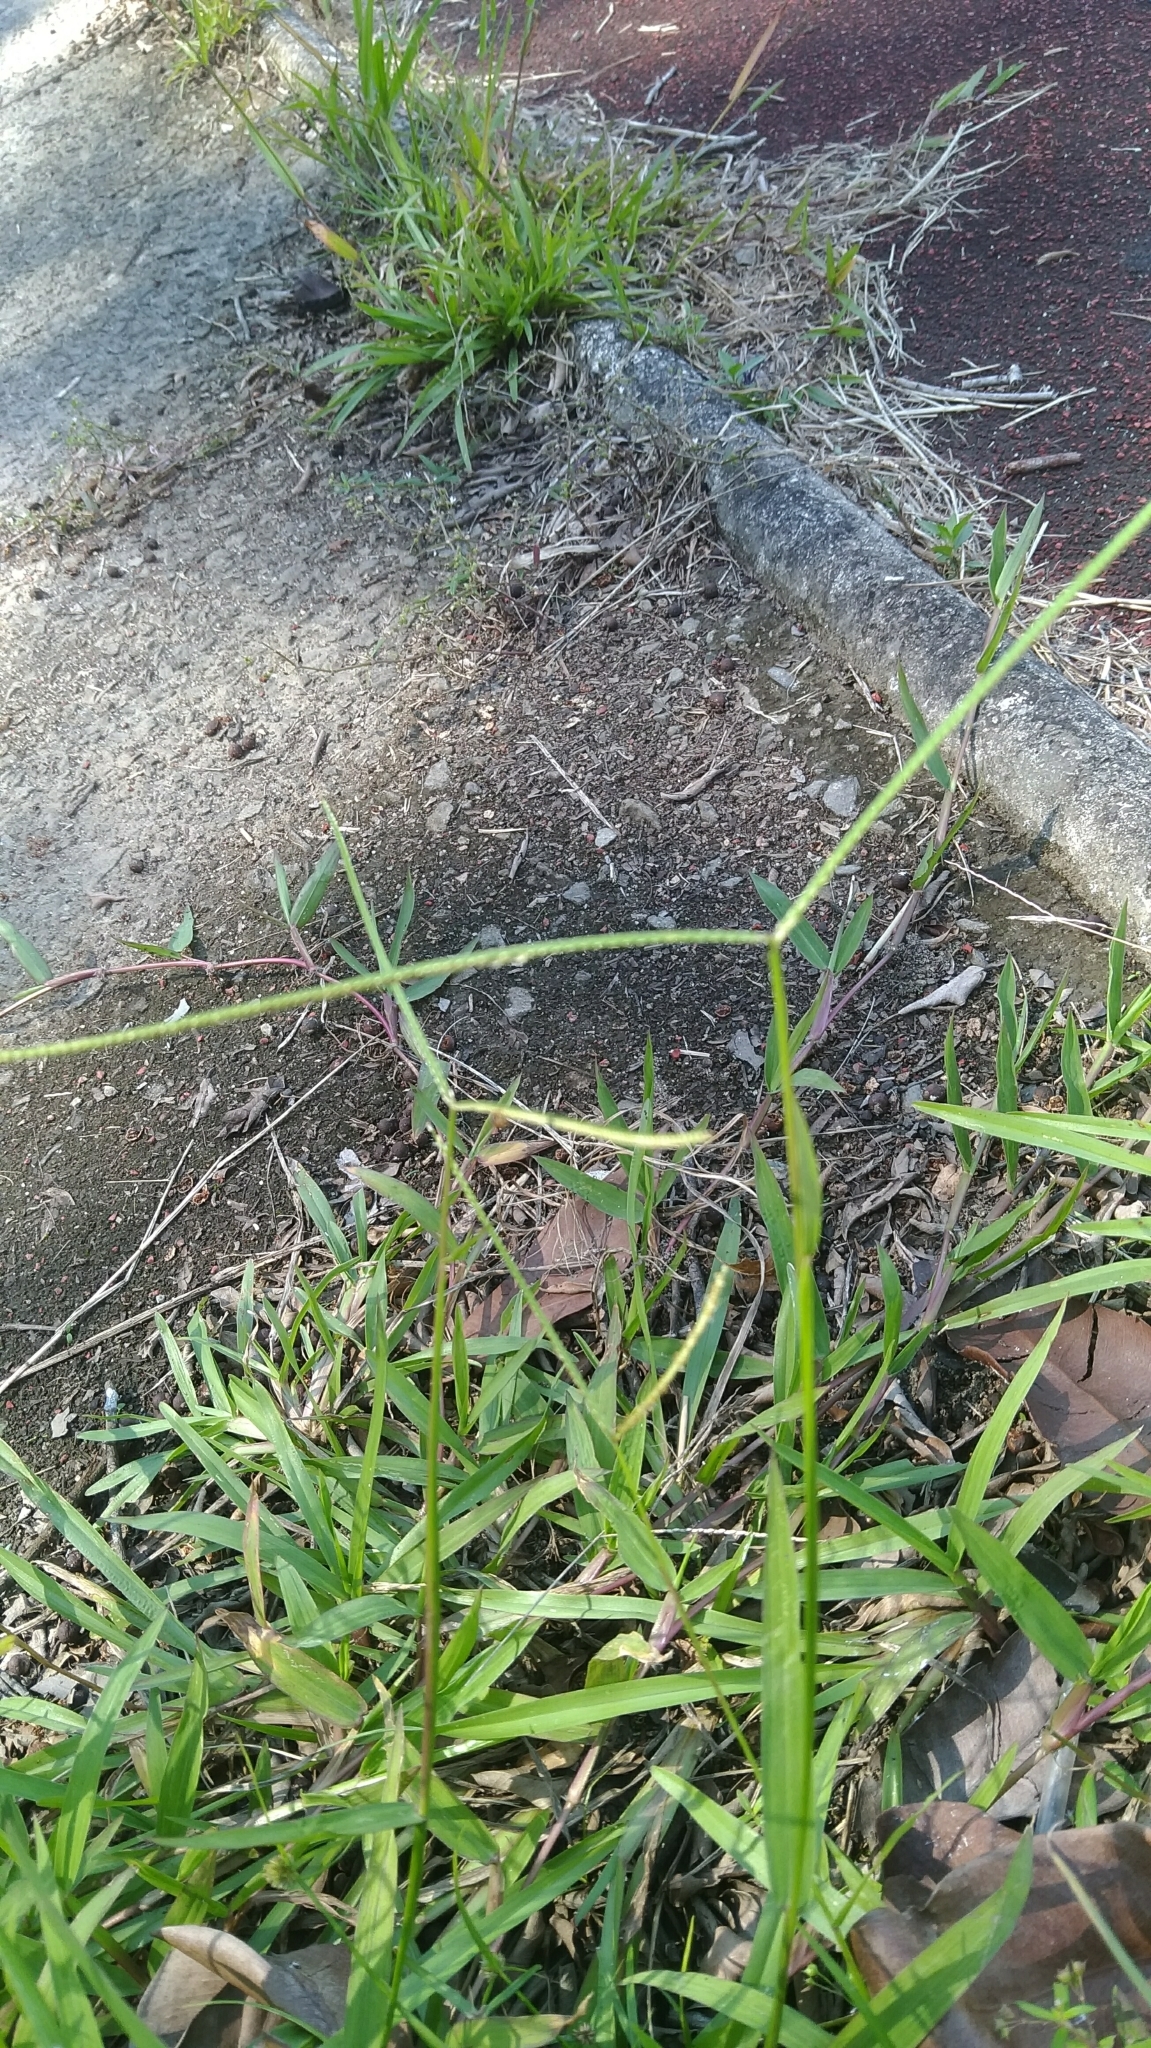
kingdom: Plantae
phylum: Tracheophyta
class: Liliopsida
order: Poales
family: Poaceae
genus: Paspalum
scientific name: Paspalum conjugatum
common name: Hilograss
